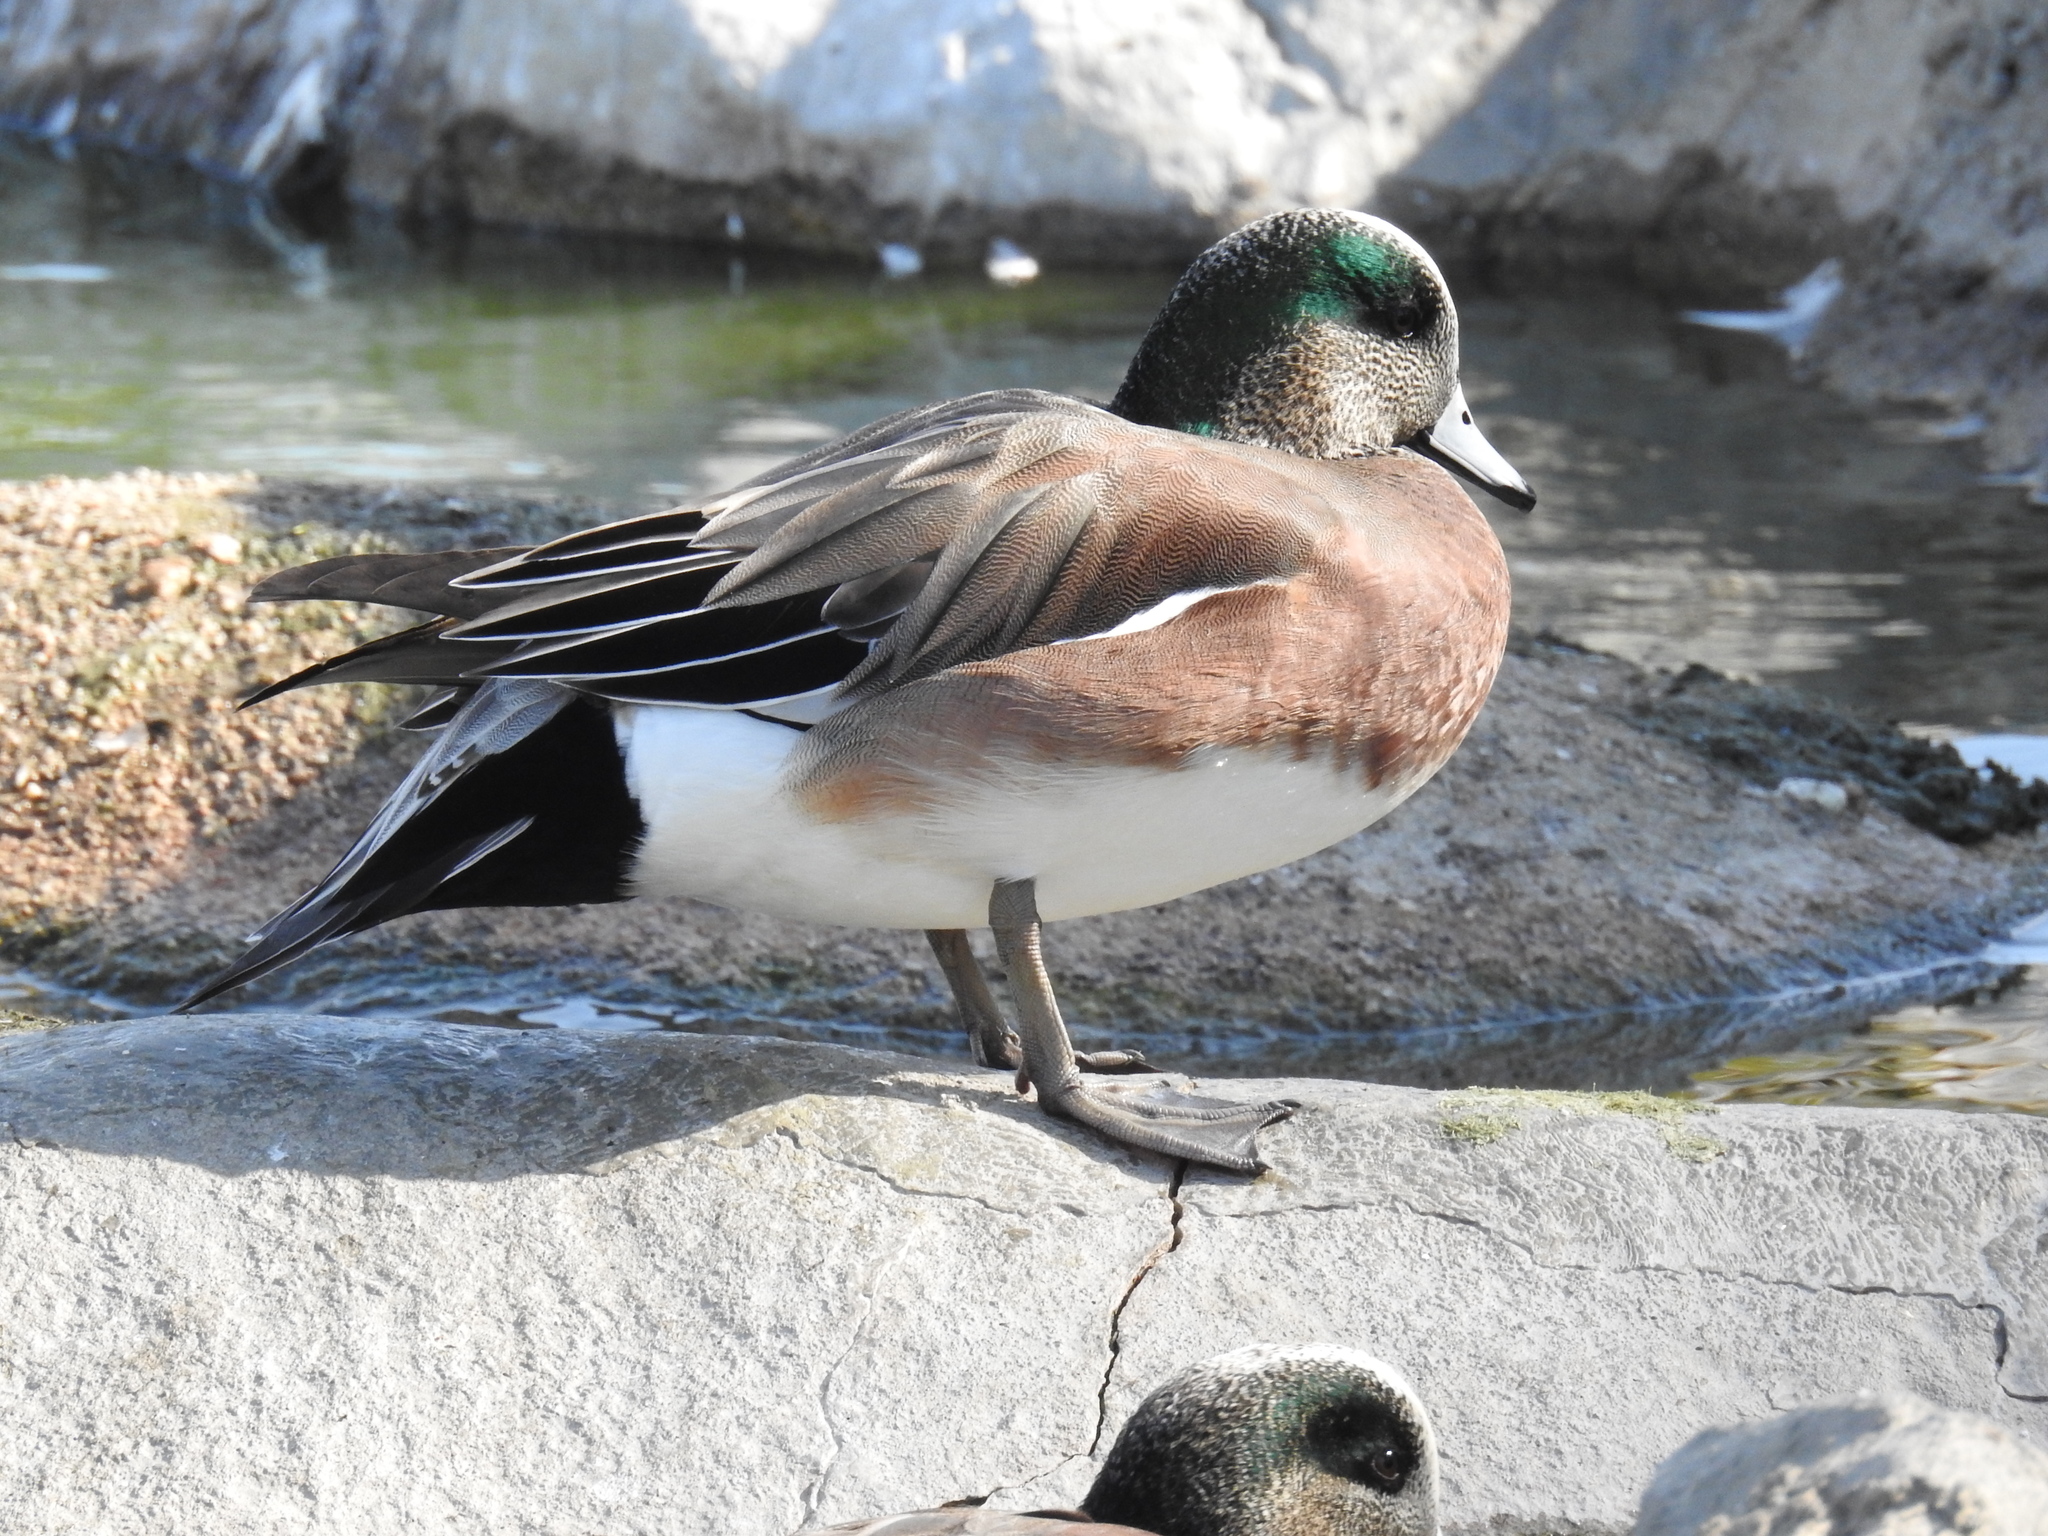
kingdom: Animalia
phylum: Chordata
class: Aves
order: Anseriformes
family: Anatidae
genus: Mareca
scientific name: Mareca americana
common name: American wigeon
